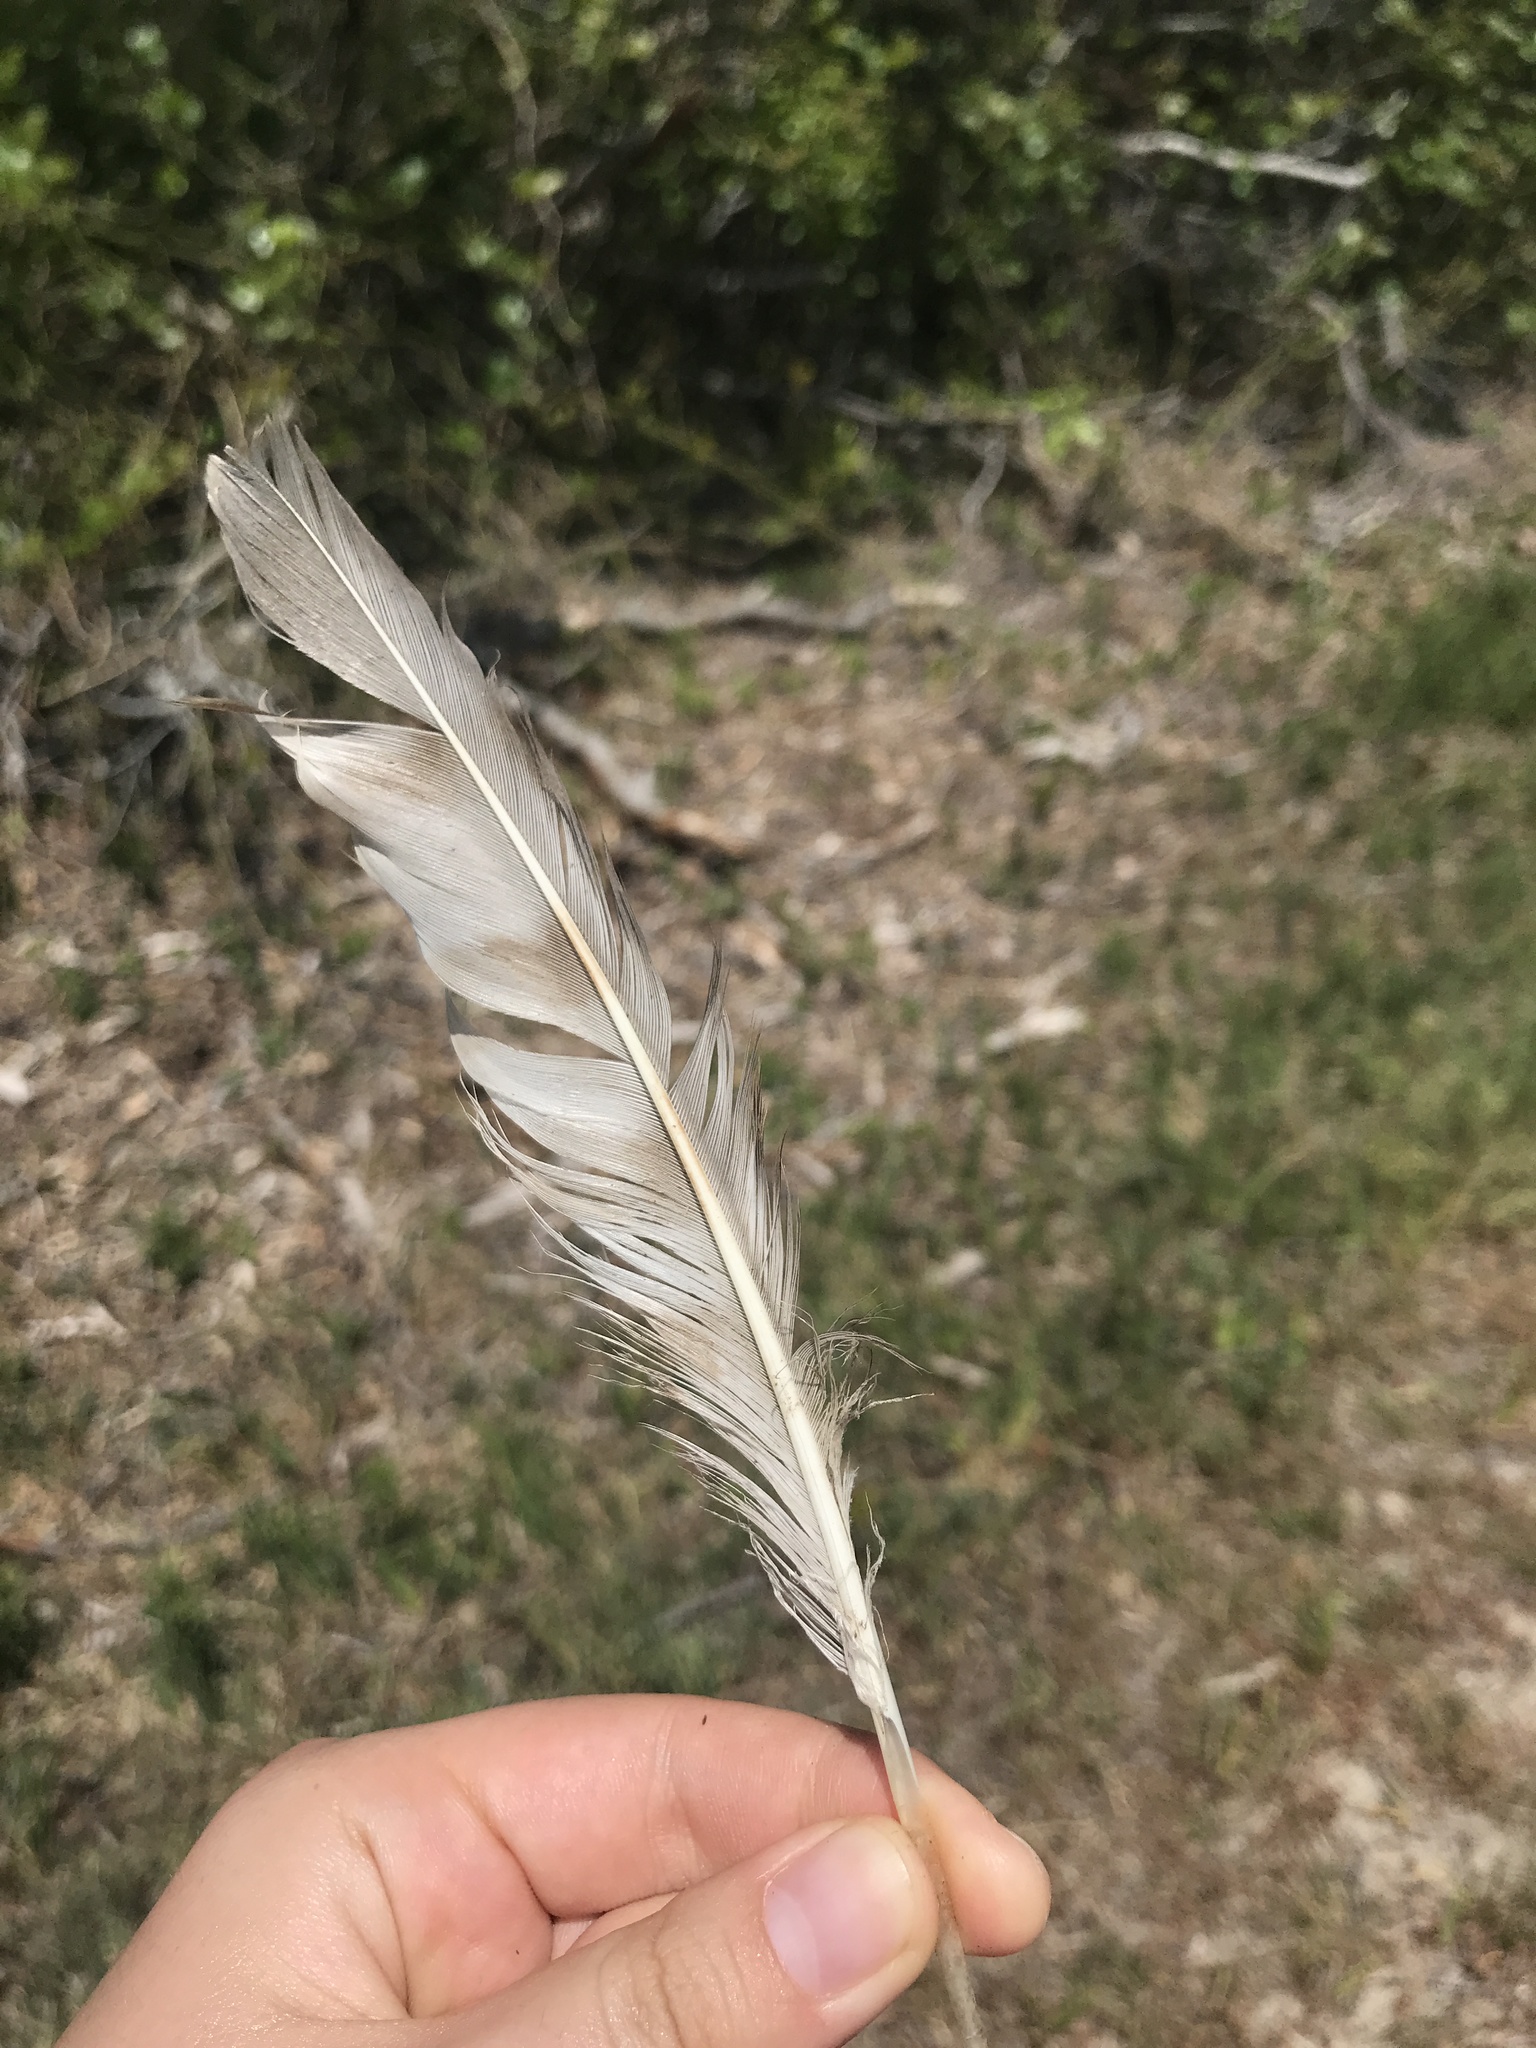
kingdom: Animalia
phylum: Chordata
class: Aves
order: Accipitriformes
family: Accipitridae
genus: Accipiter
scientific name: Accipiter cooperii
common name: Cooper's hawk
